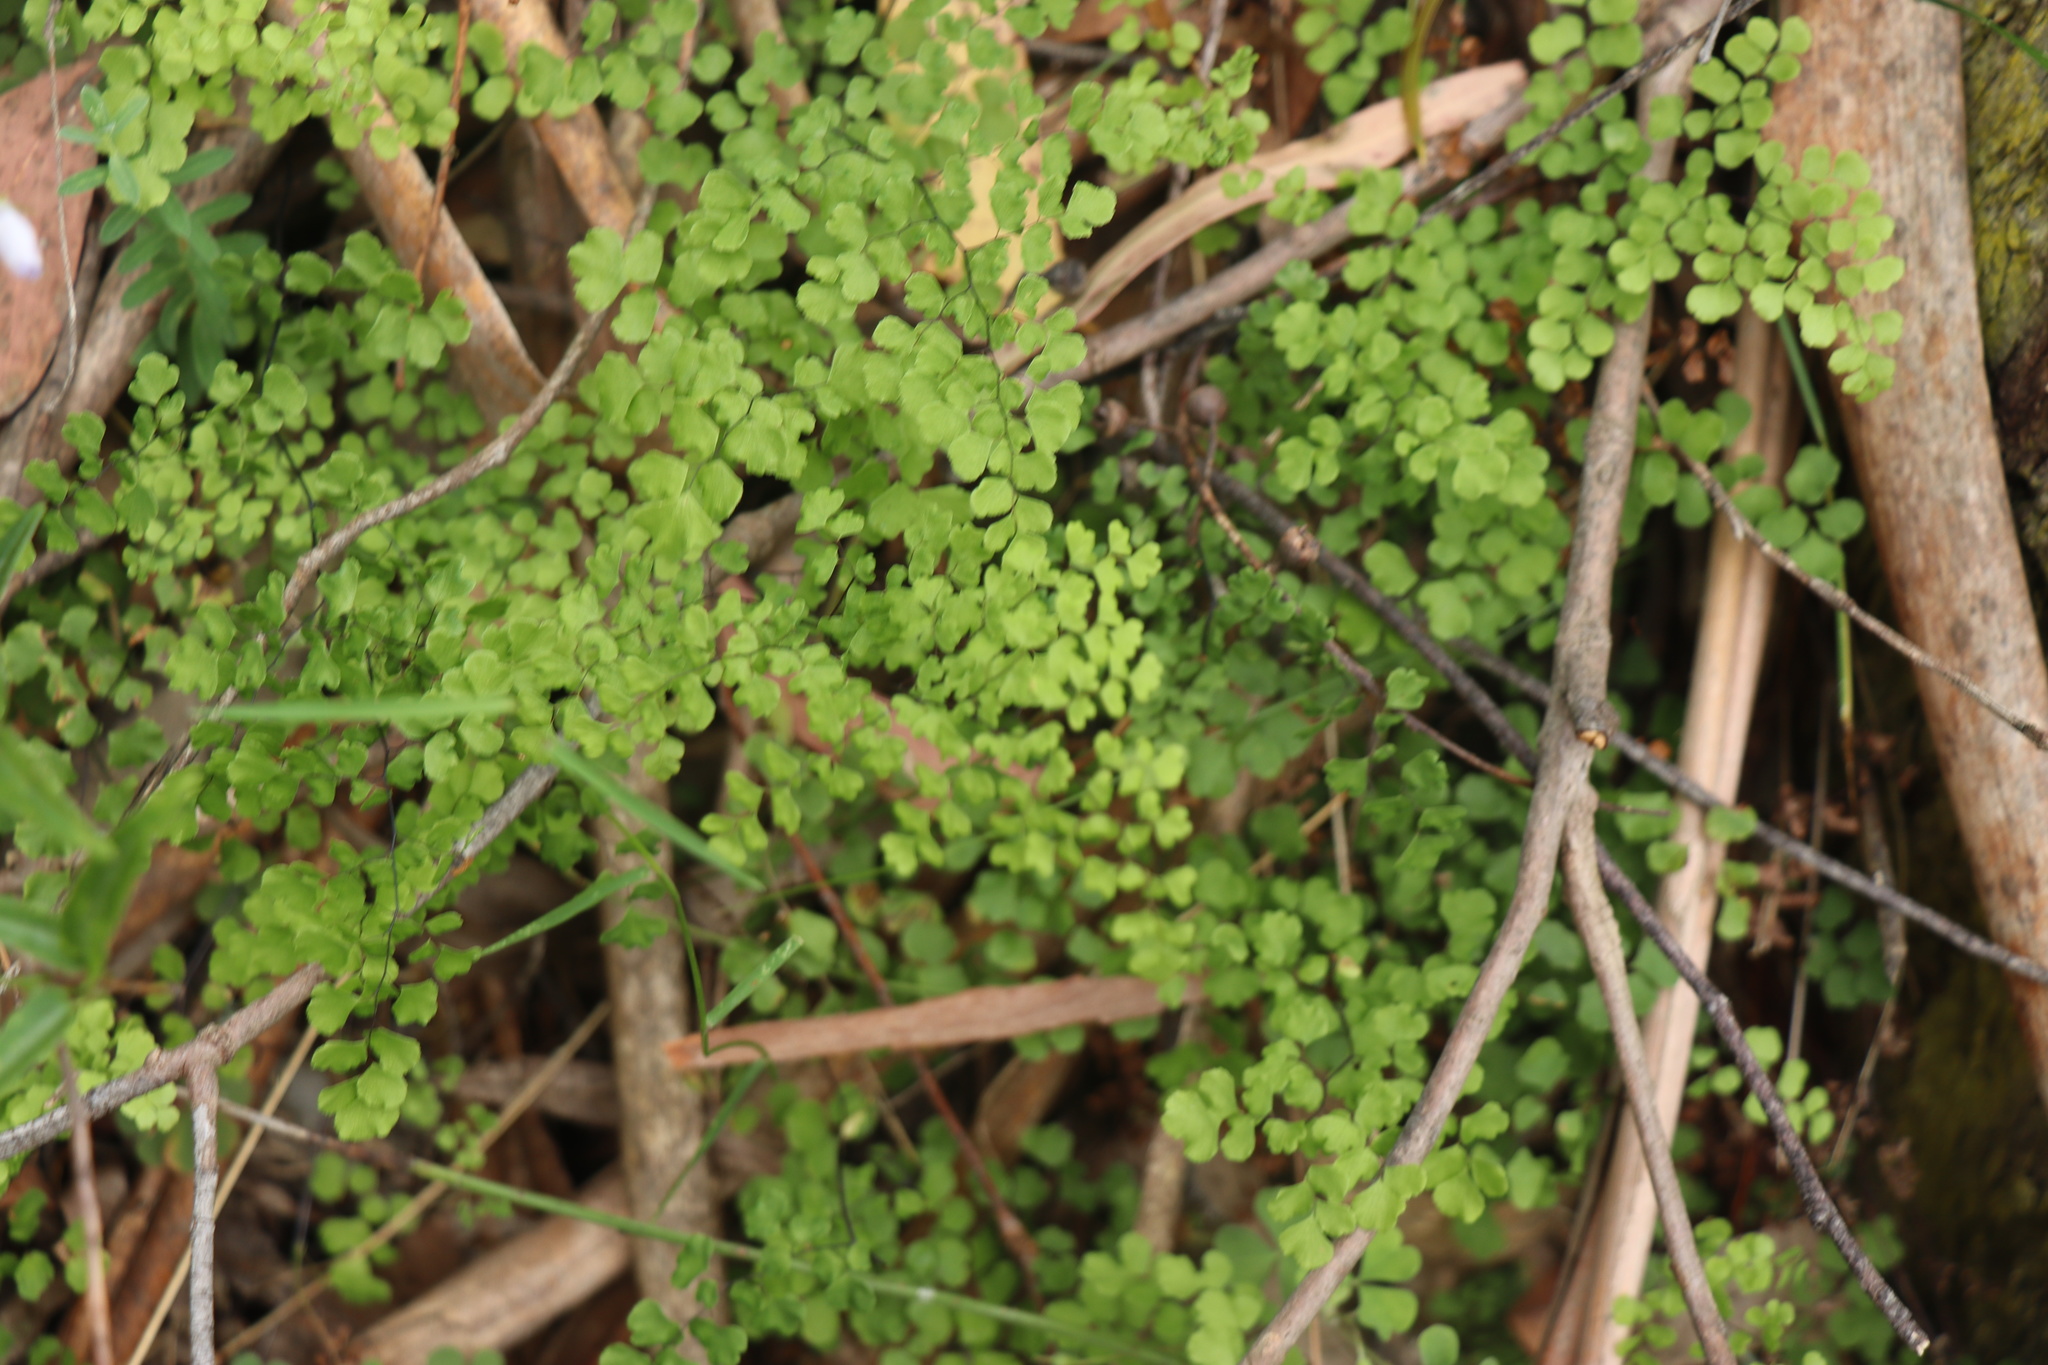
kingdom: Plantae
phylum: Tracheophyta
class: Polypodiopsida
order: Polypodiales
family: Pteridaceae
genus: Adiantum
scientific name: Adiantum aethiopicum
